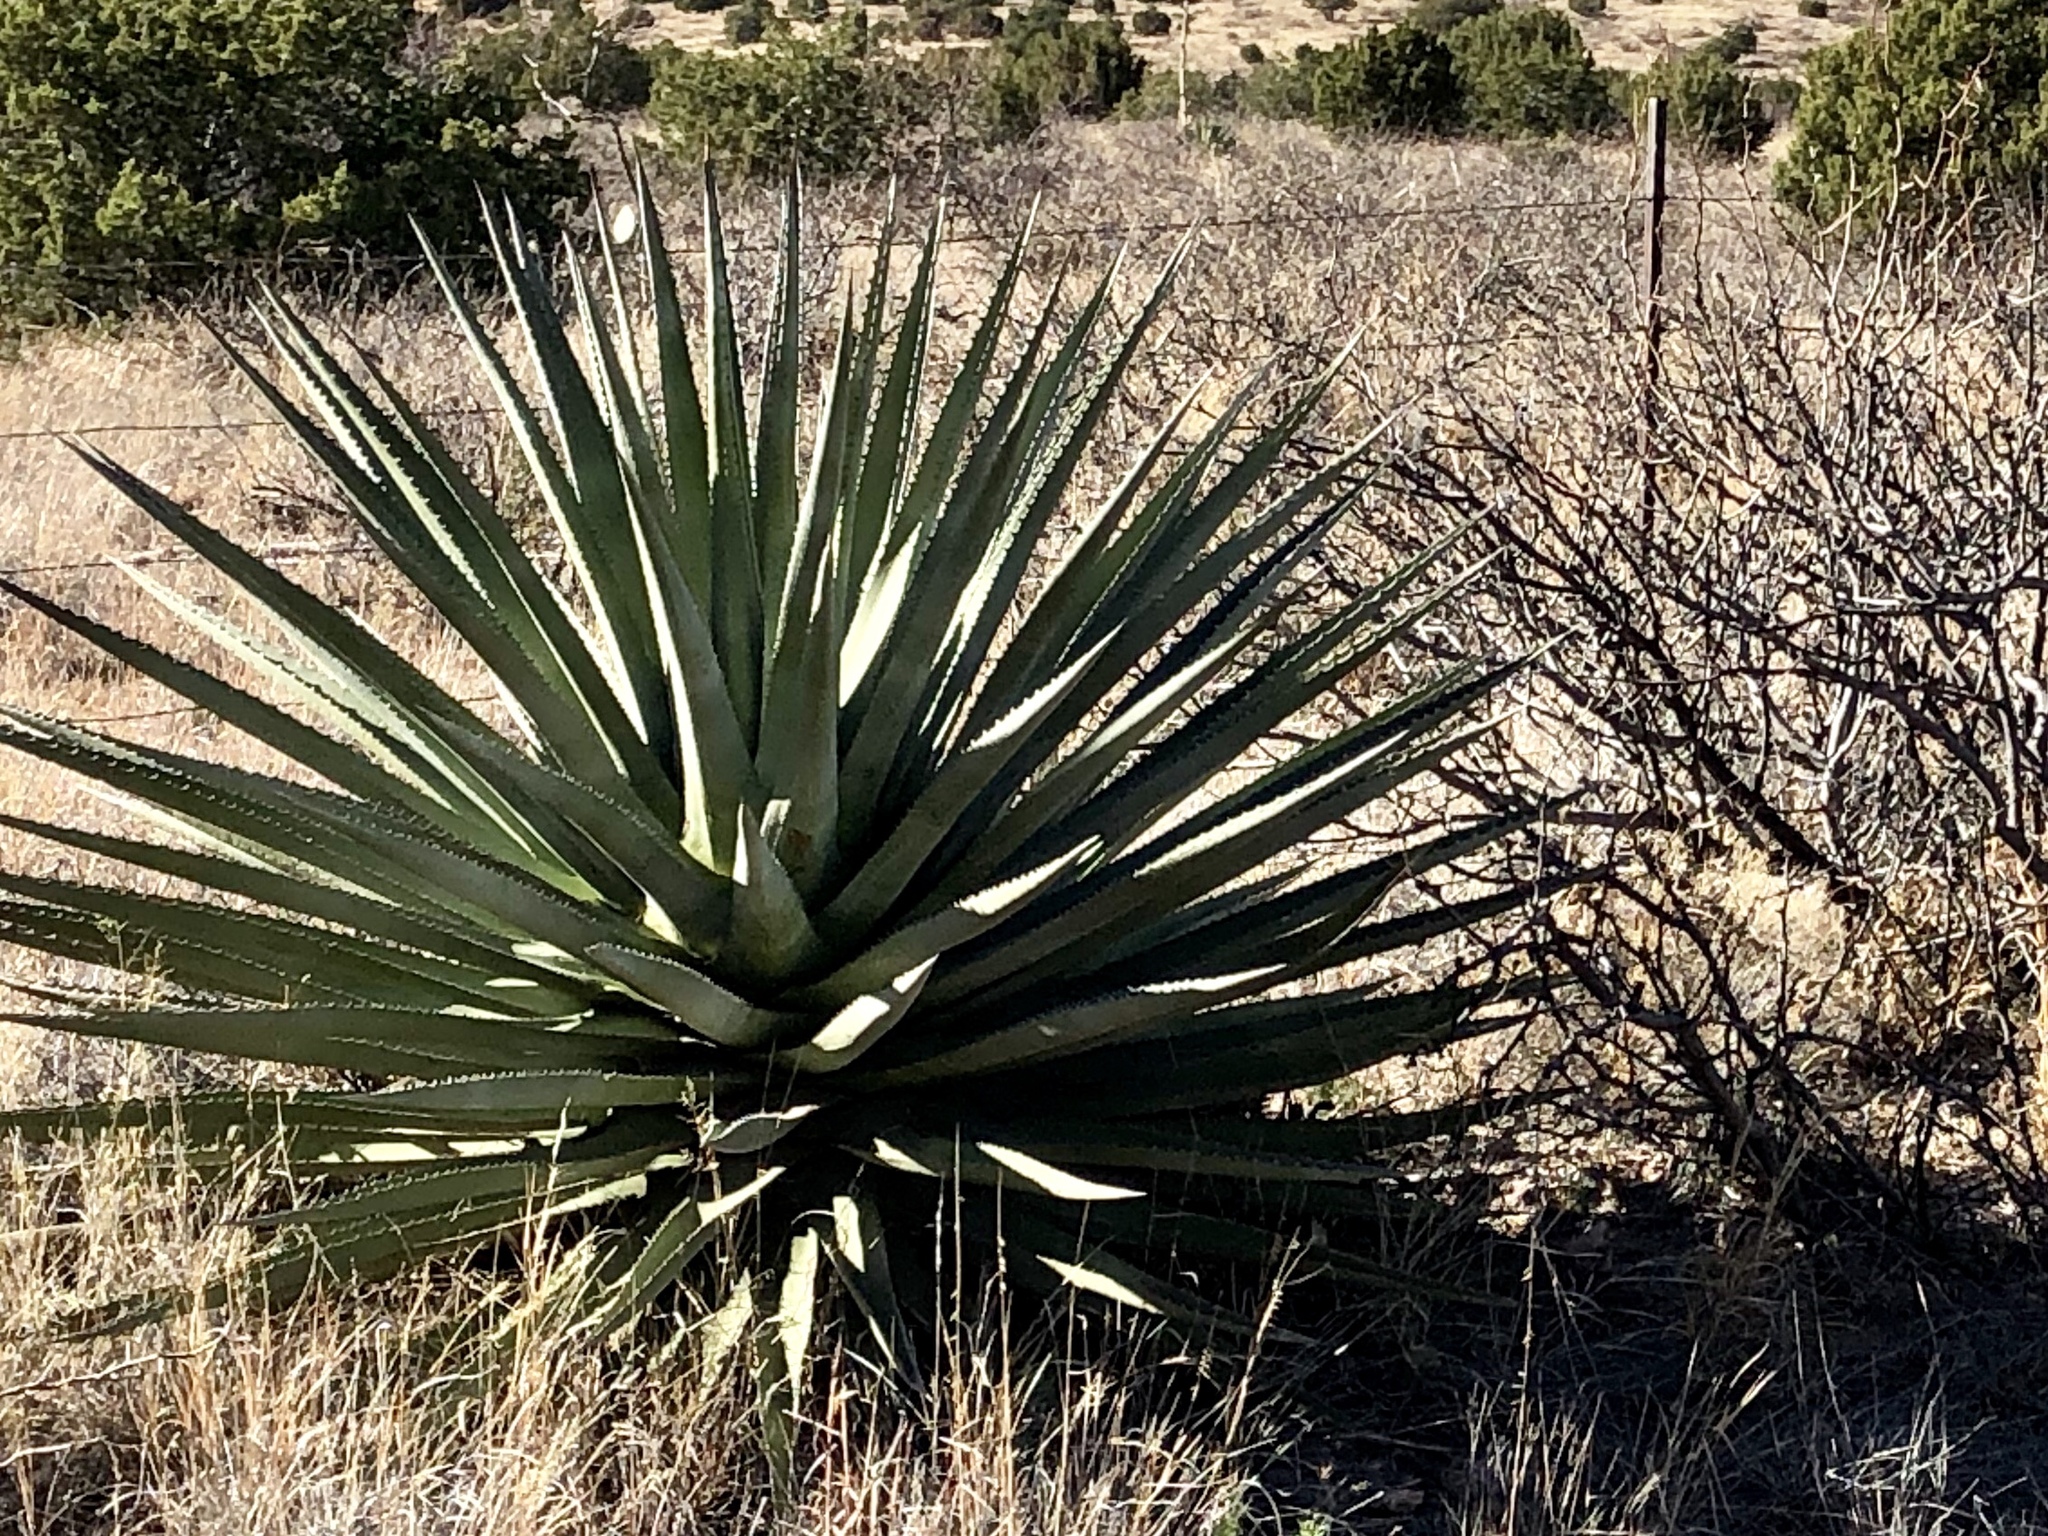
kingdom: Plantae
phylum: Tracheophyta
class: Liliopsida
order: Asparagales
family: Asparagaceae
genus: Agave
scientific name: Agave palmeri
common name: Palmer agave
